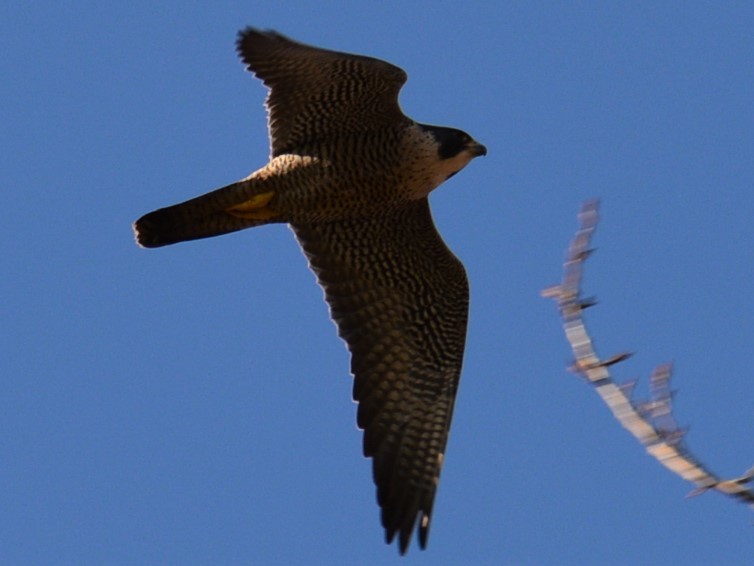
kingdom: Animalia
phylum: Chordata
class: Aves
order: Falconiformes
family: Falconidae
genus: Falco
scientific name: Falco peregrinus
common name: Peregrine falcon
